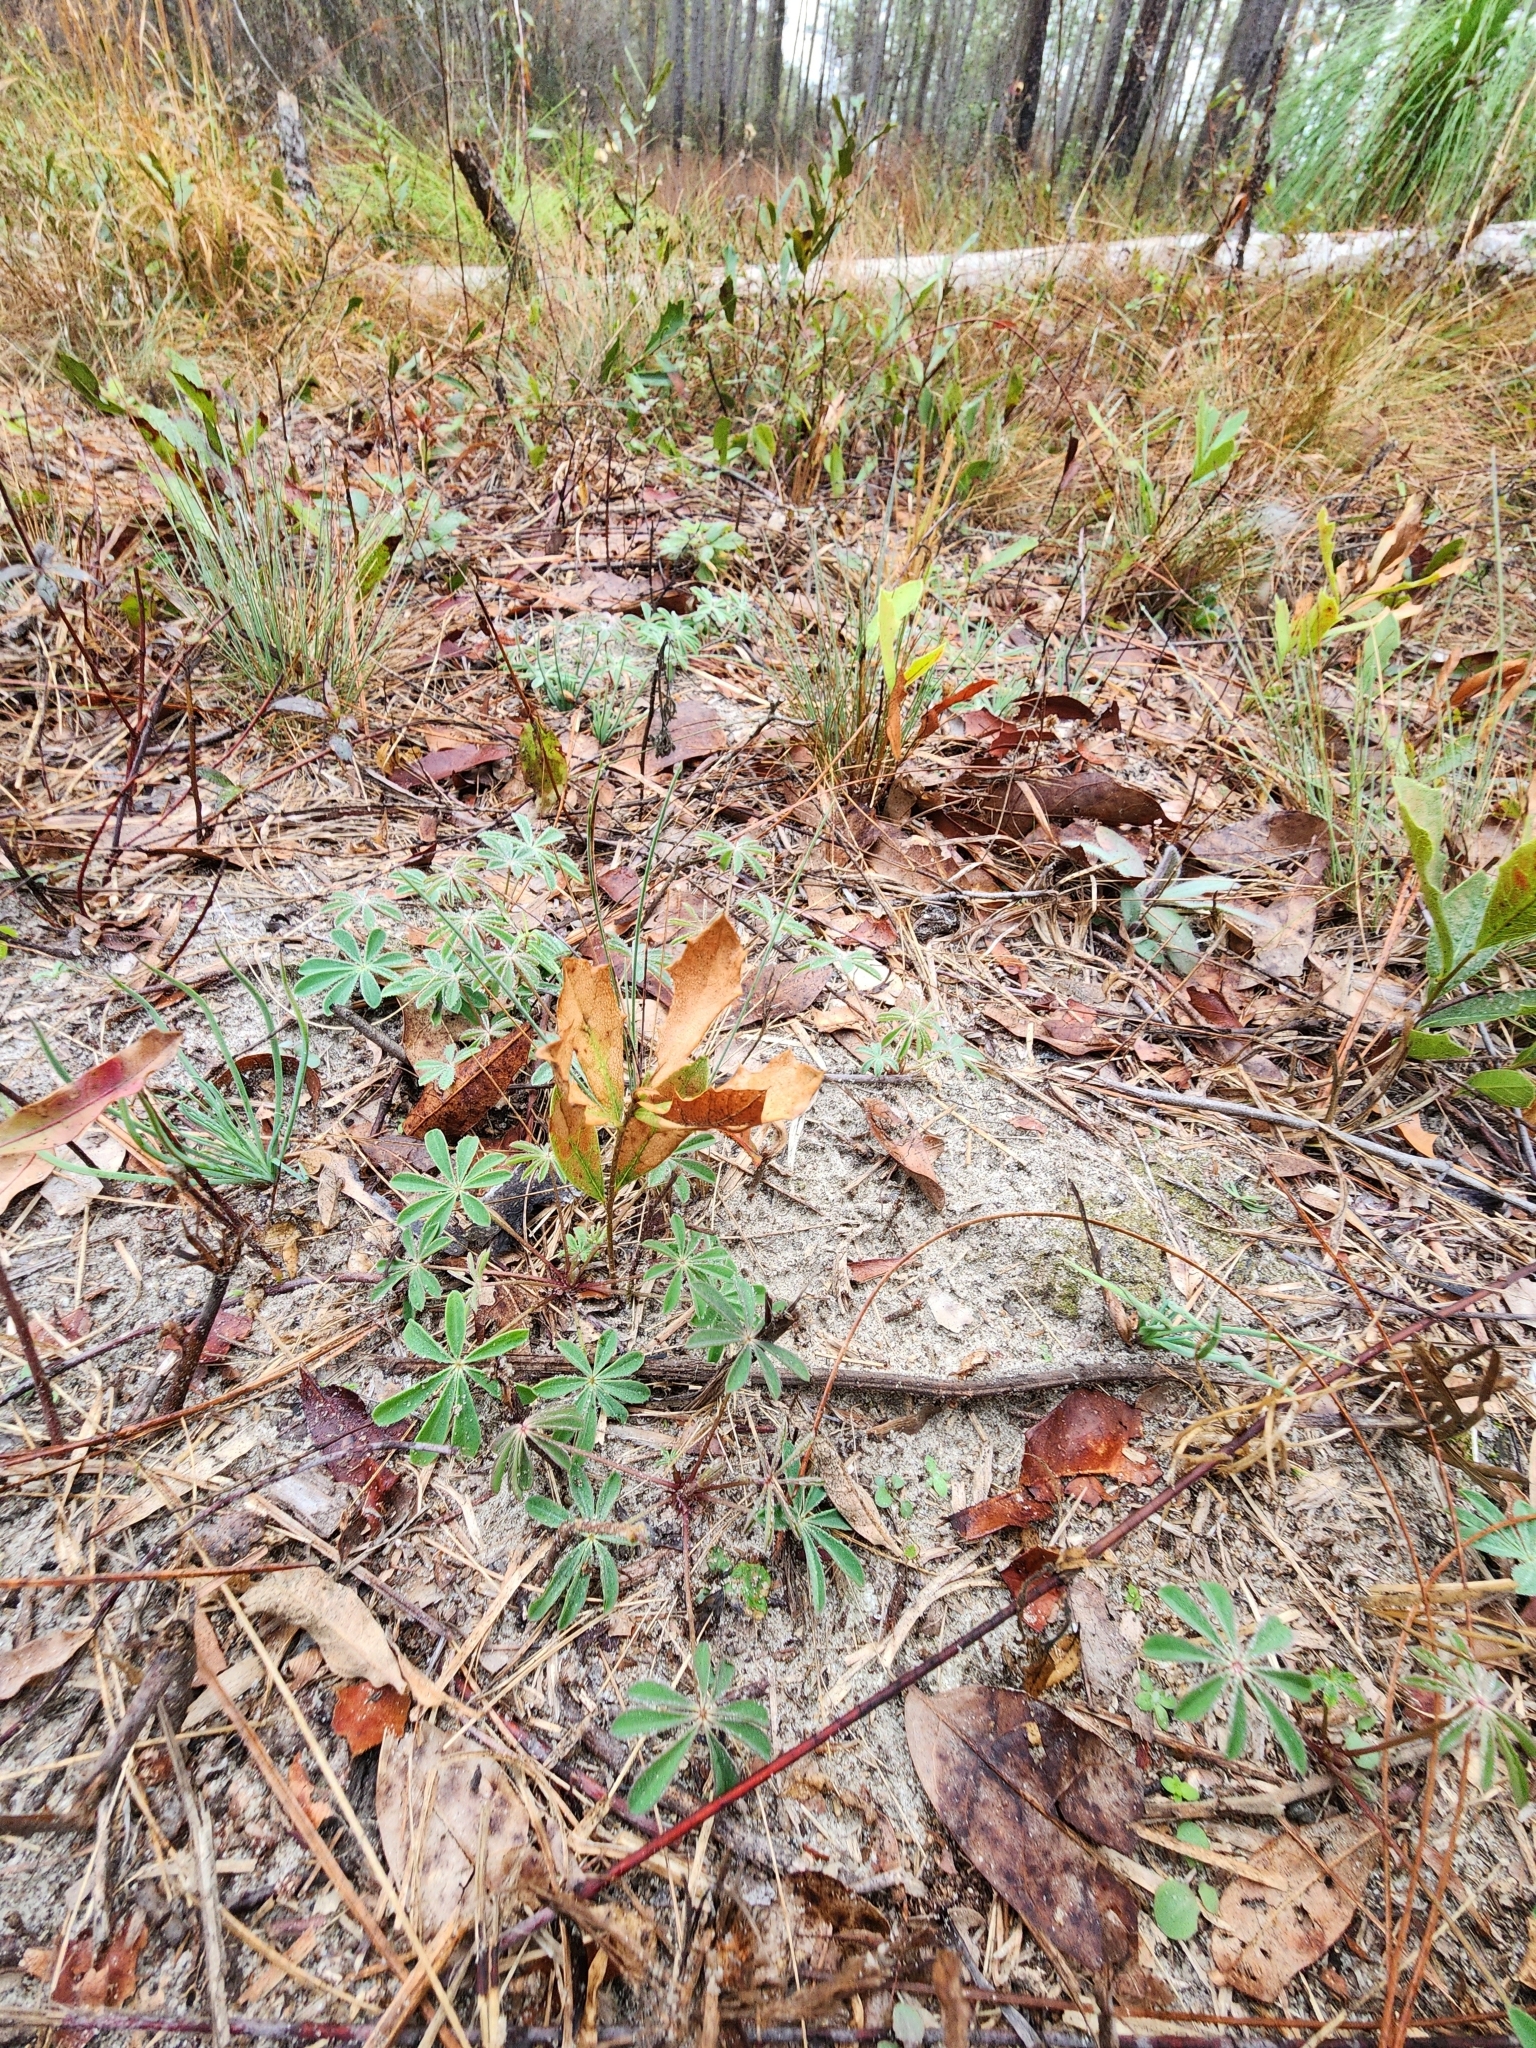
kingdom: Plantae
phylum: Tracheophyta
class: Magnoliopsida
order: Fabales
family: Fabaceae
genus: Lupinus
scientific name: Lupinus perennis
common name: Sundial lupine
